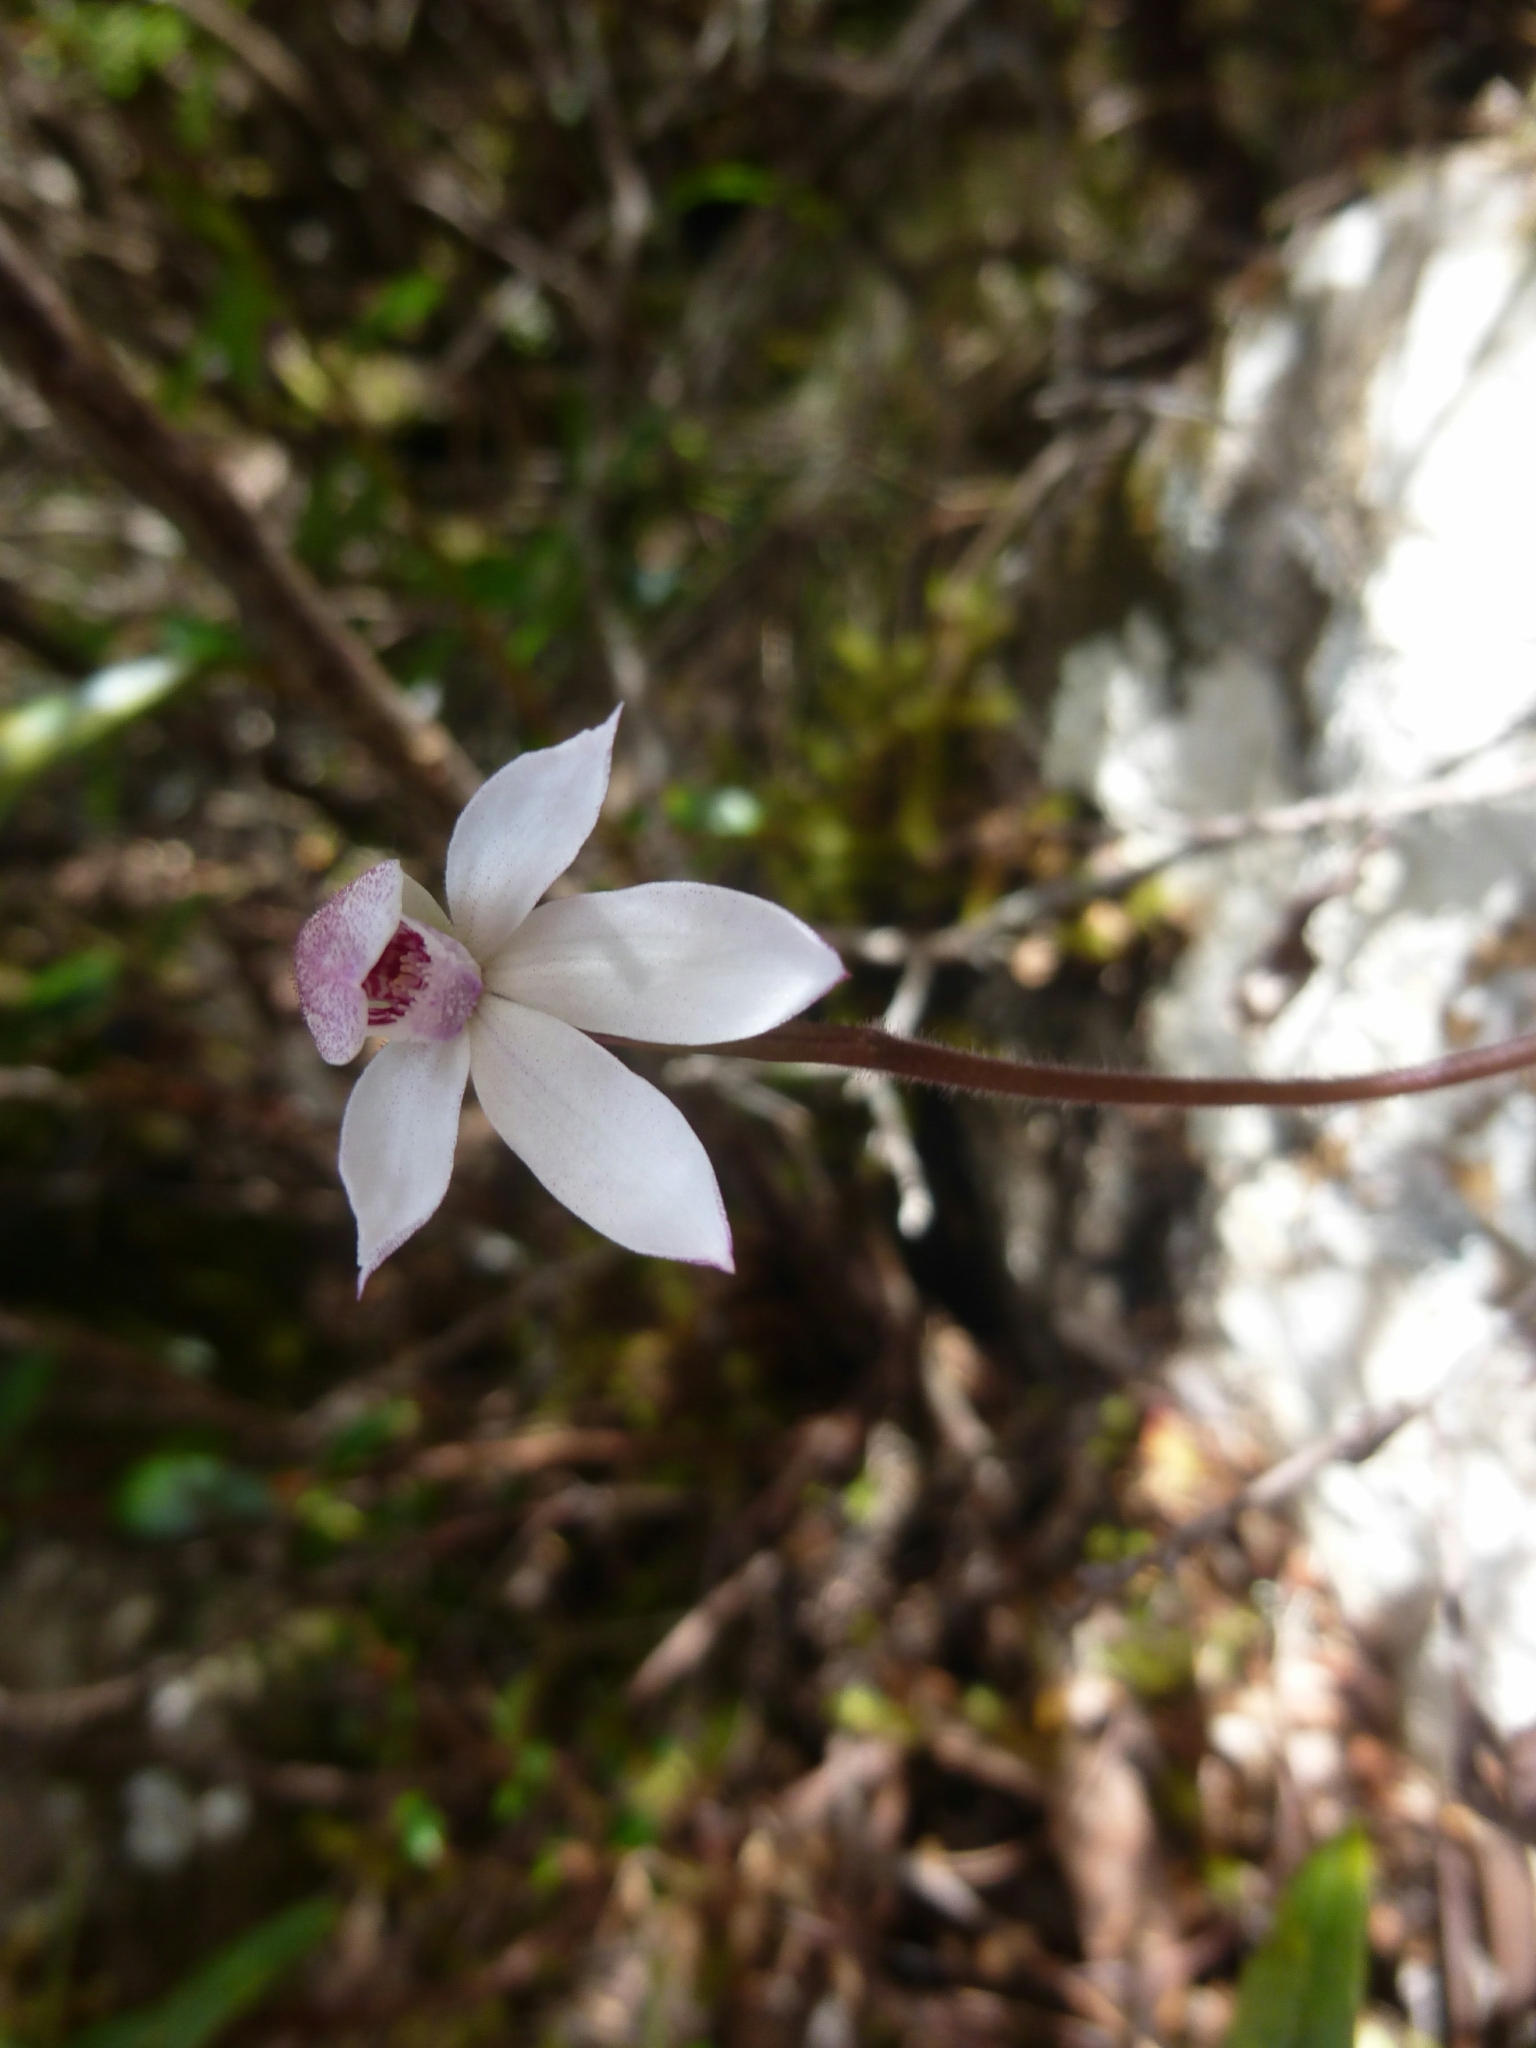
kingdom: Plantae
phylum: Tracheophyta
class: Liliopsida
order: Asparagales
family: Orchidaceae
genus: Caladenia
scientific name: Caladenia alpina
